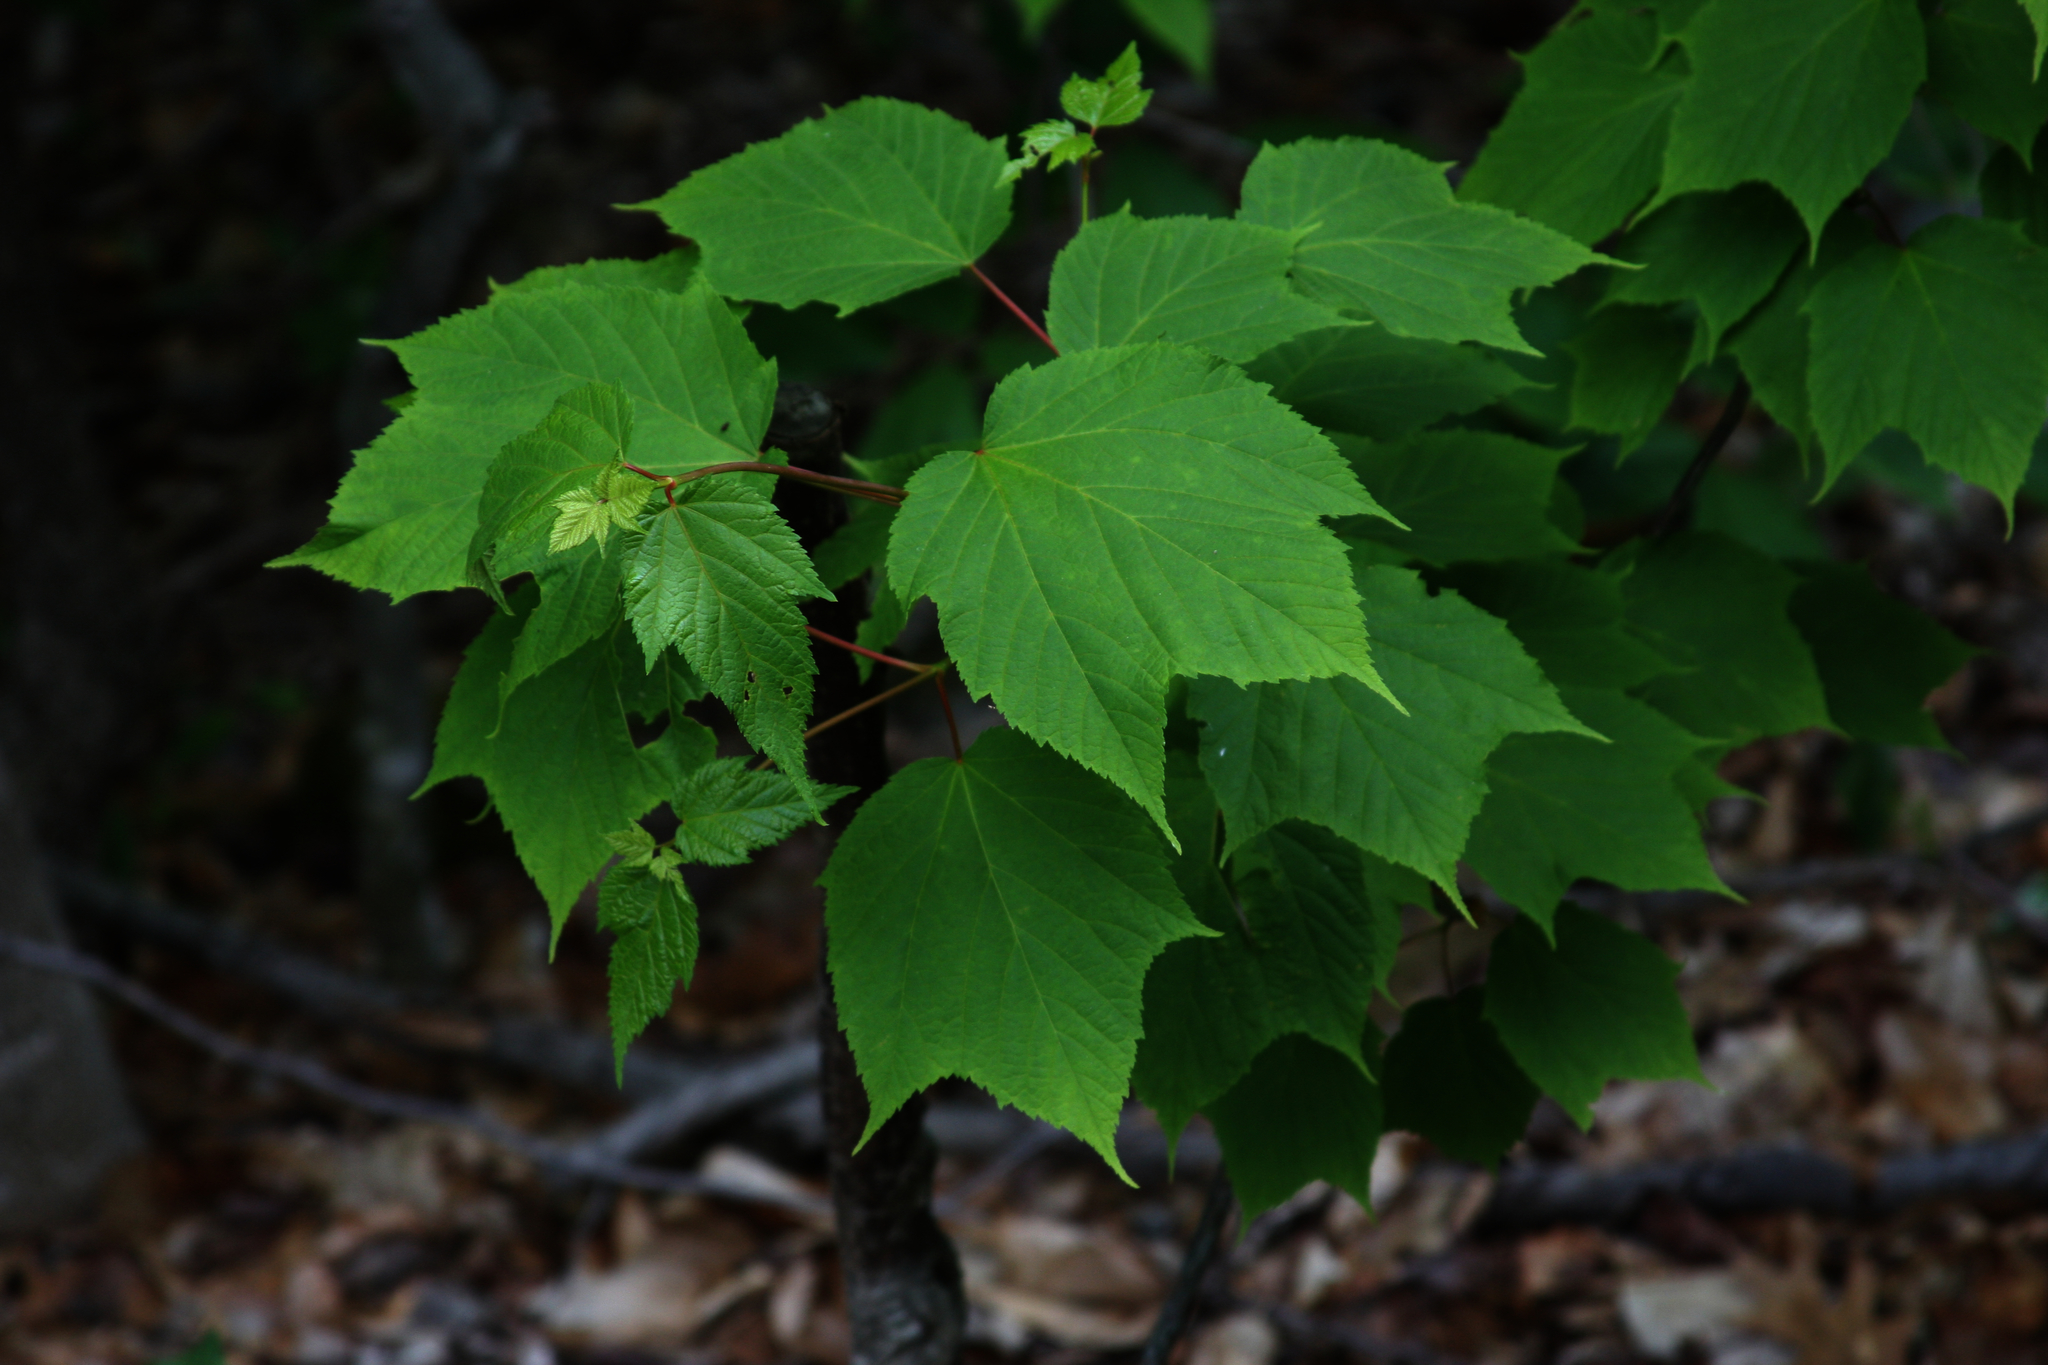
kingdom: Plantae
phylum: Tracheophyta
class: Magnoliopsida
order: Sapindales
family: Sapindaceae
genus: Acer
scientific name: Acer pensylvanicum
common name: Moosewood
